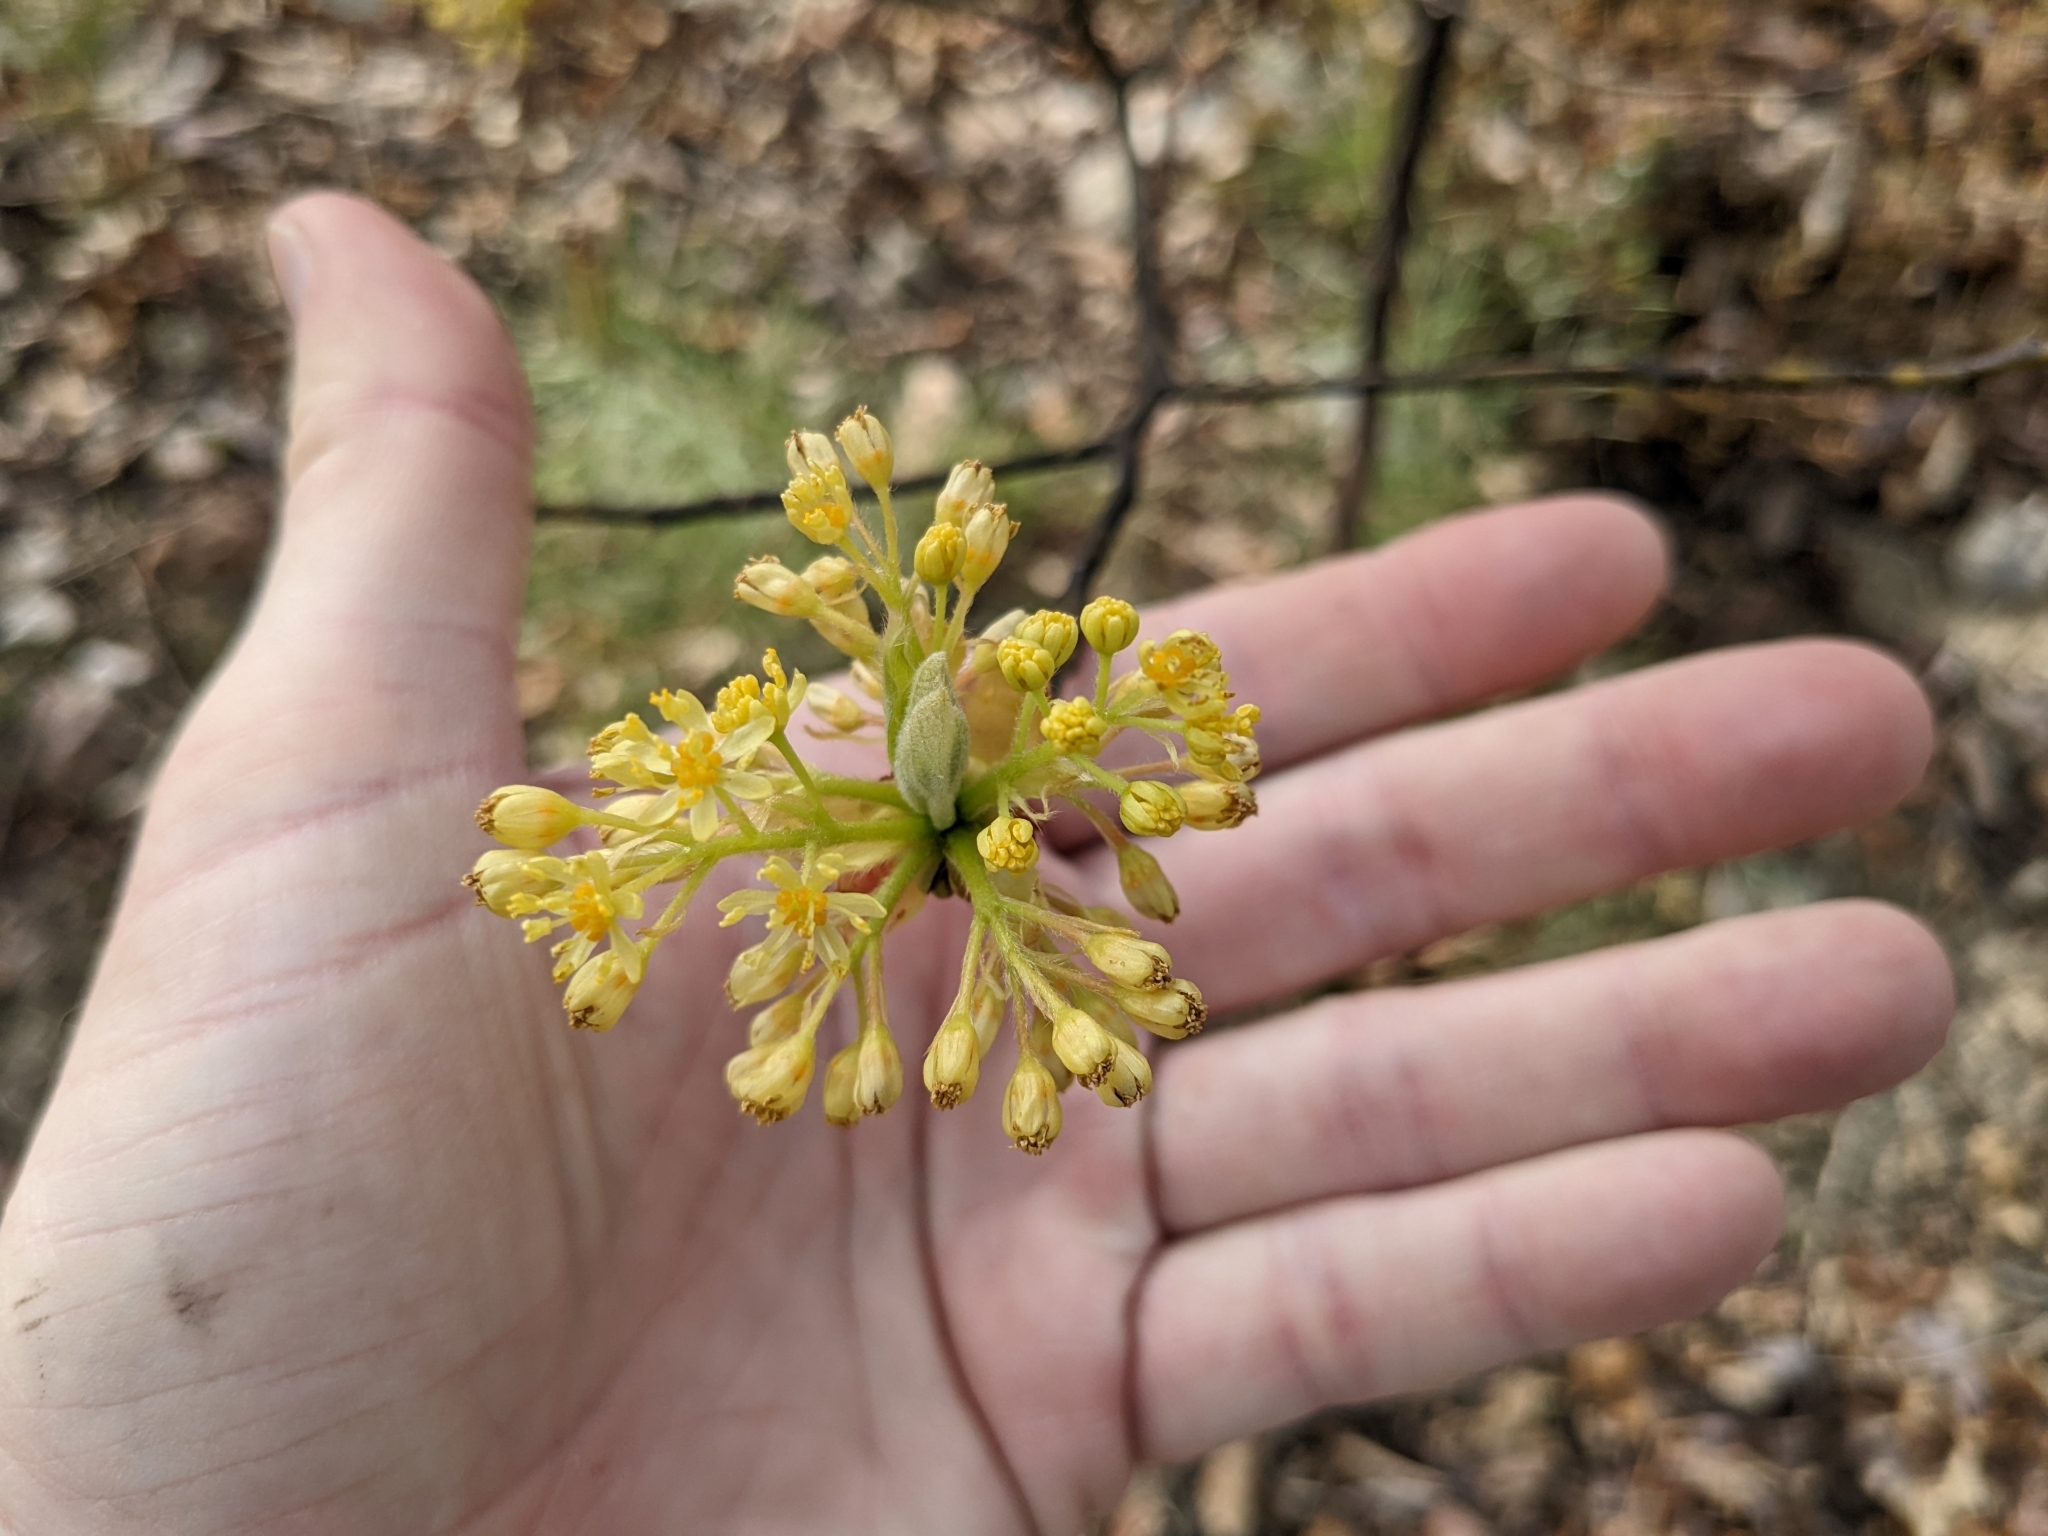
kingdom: Plantae
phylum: Tracheophyta
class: Magnoliopsida
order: Laurales
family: Lauraceae
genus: Sassafras
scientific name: Sassafras albidum
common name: Sassafras
